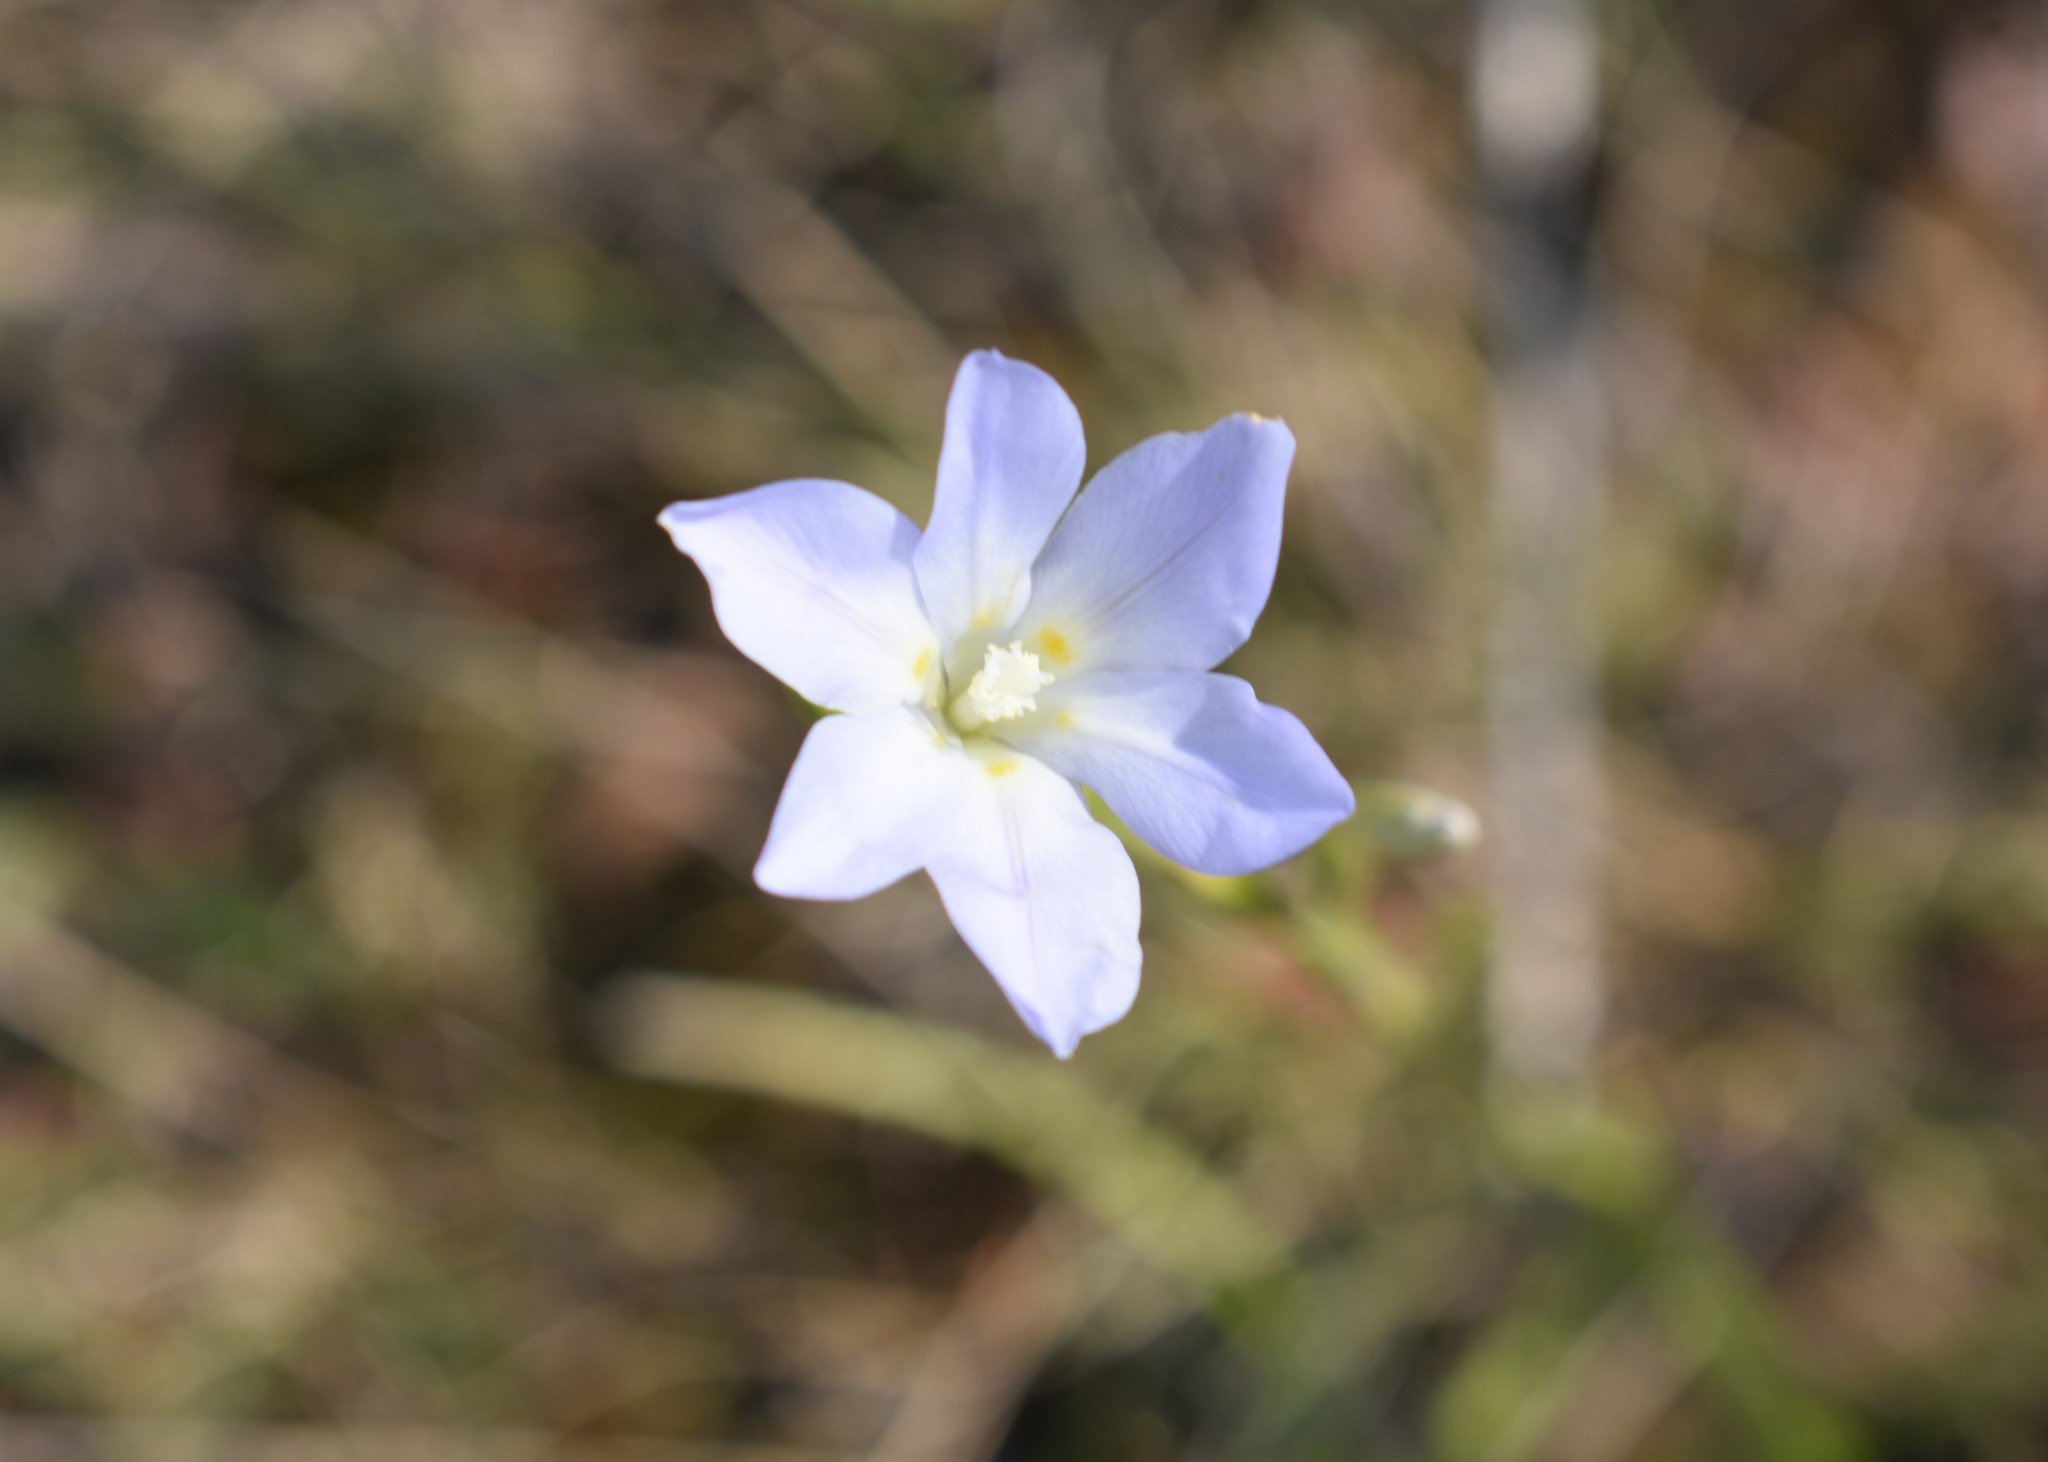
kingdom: Plantae
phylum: Tracheophyta
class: Liliopsida
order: Asparagales
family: Iridaceae
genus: Moraea
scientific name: Moraea polyanthos
